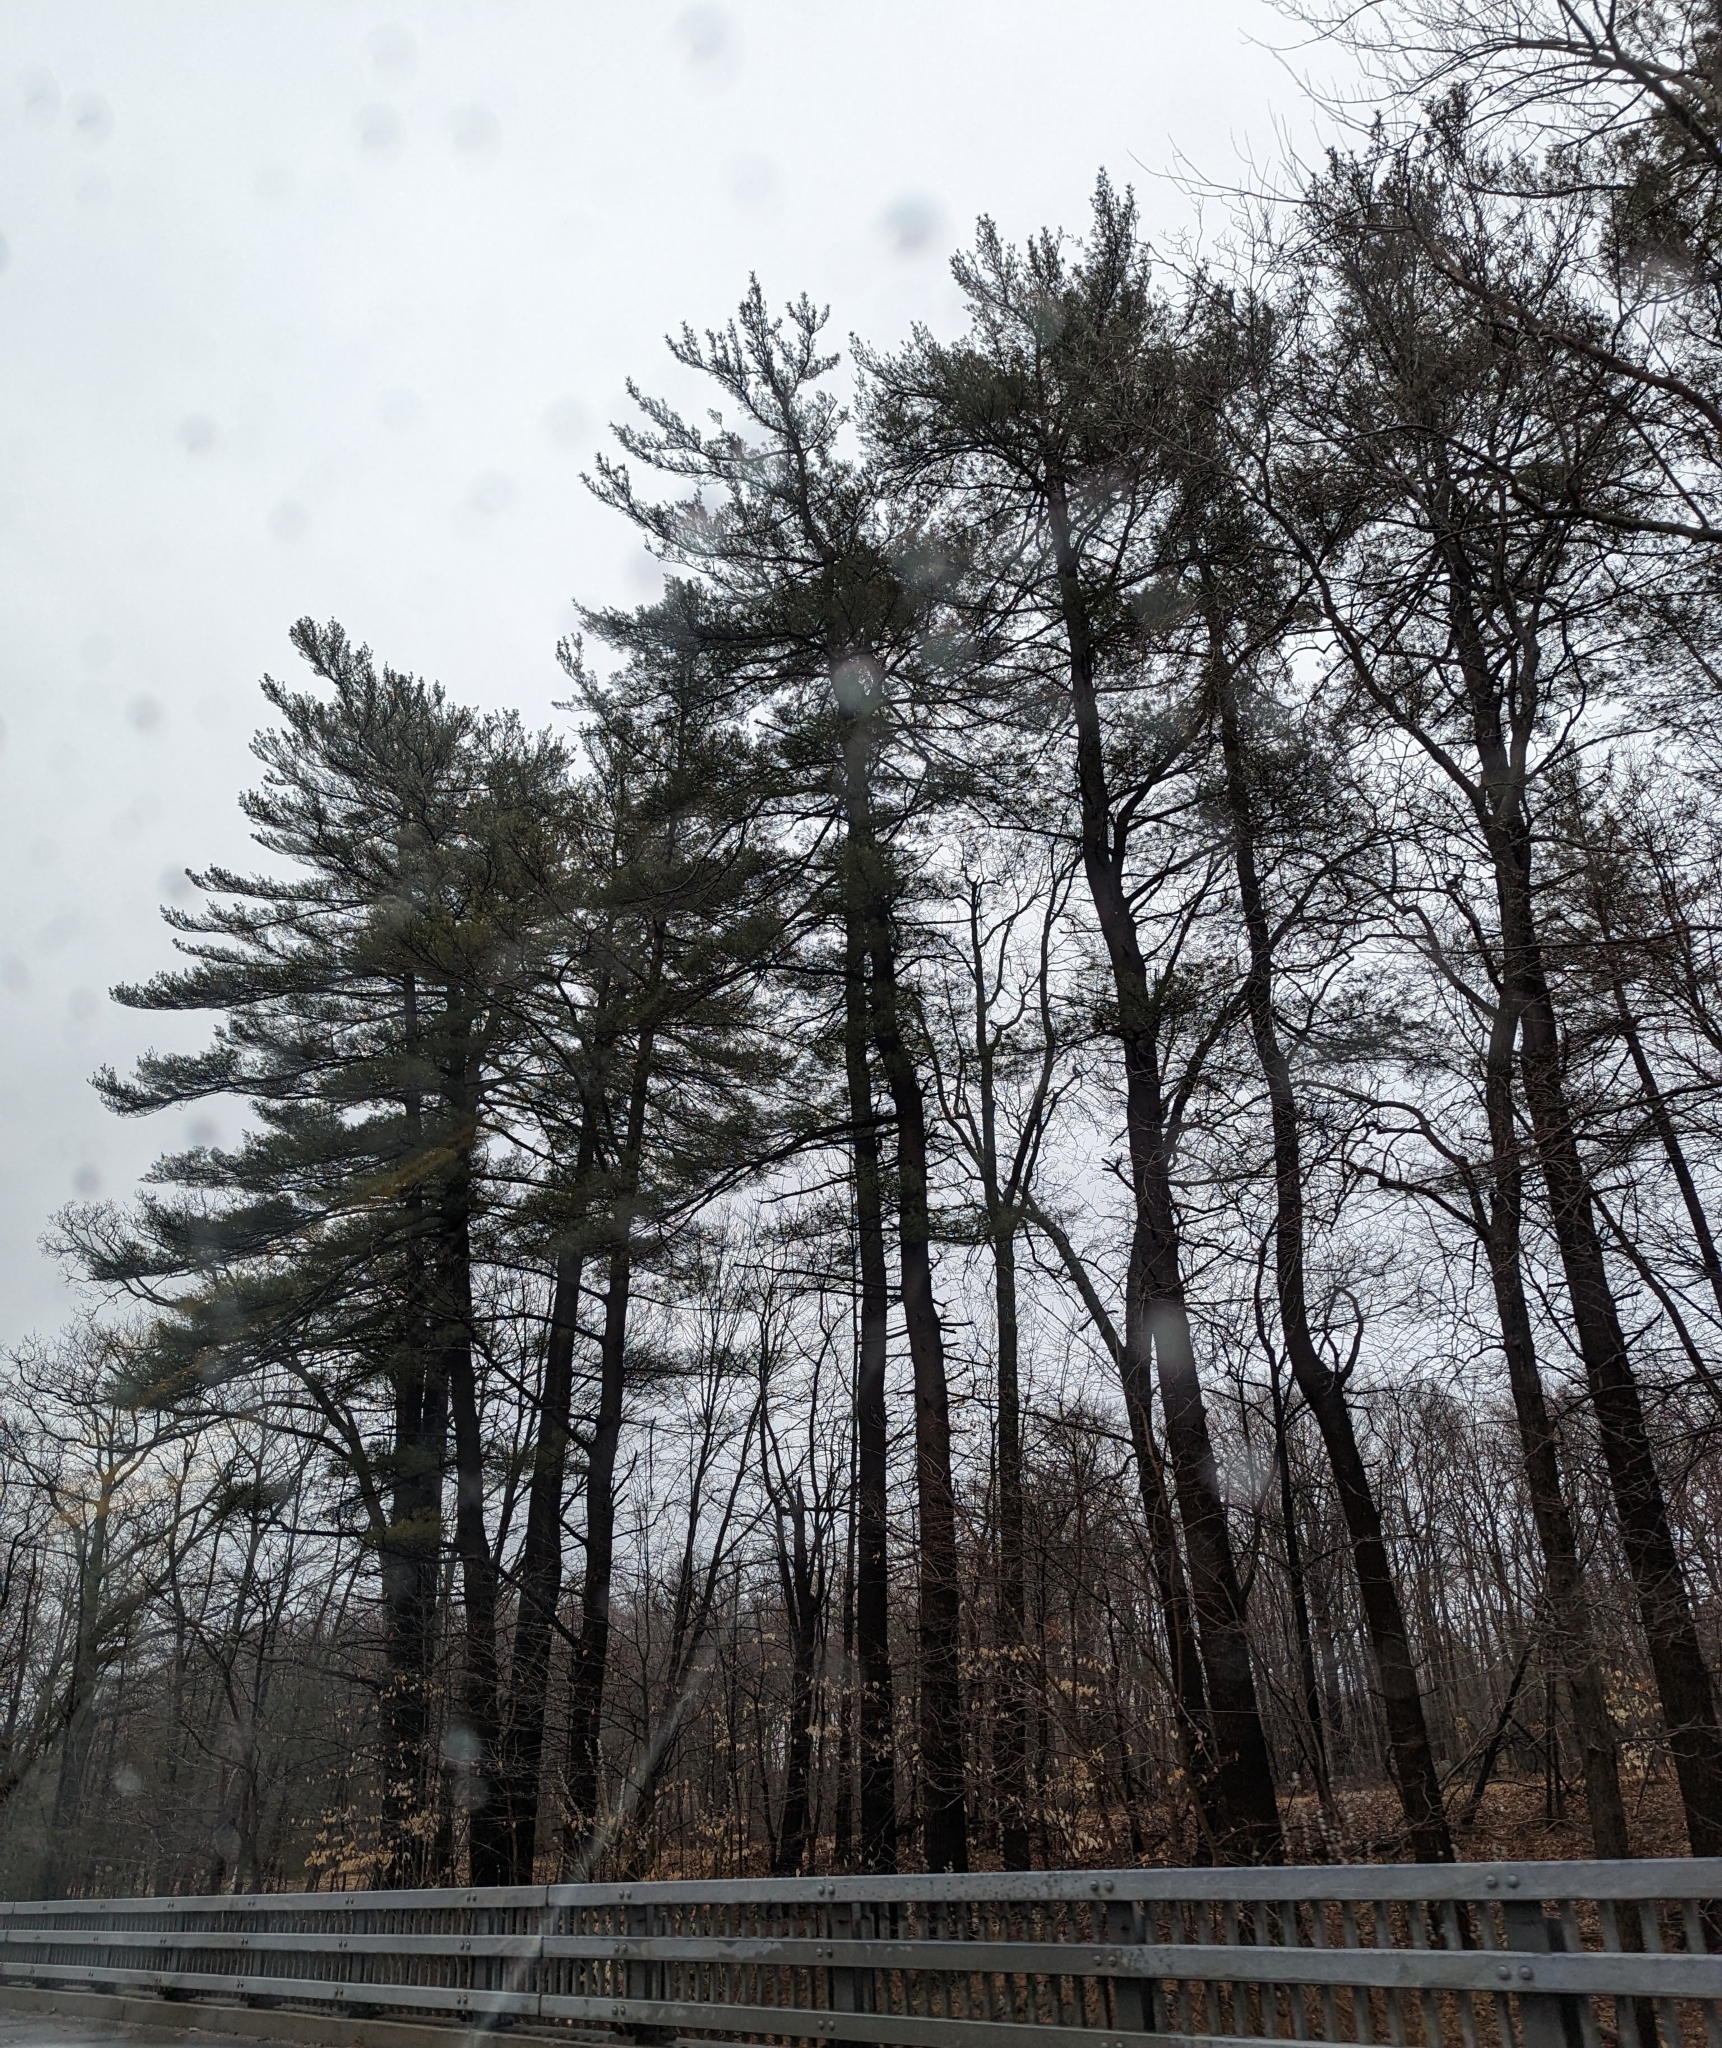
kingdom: Plantae
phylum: Tracheophyta
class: Pinopsida
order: Pinales
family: Pinaceae
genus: Pinus
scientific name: Pinus strobus
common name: Weymouth pine
